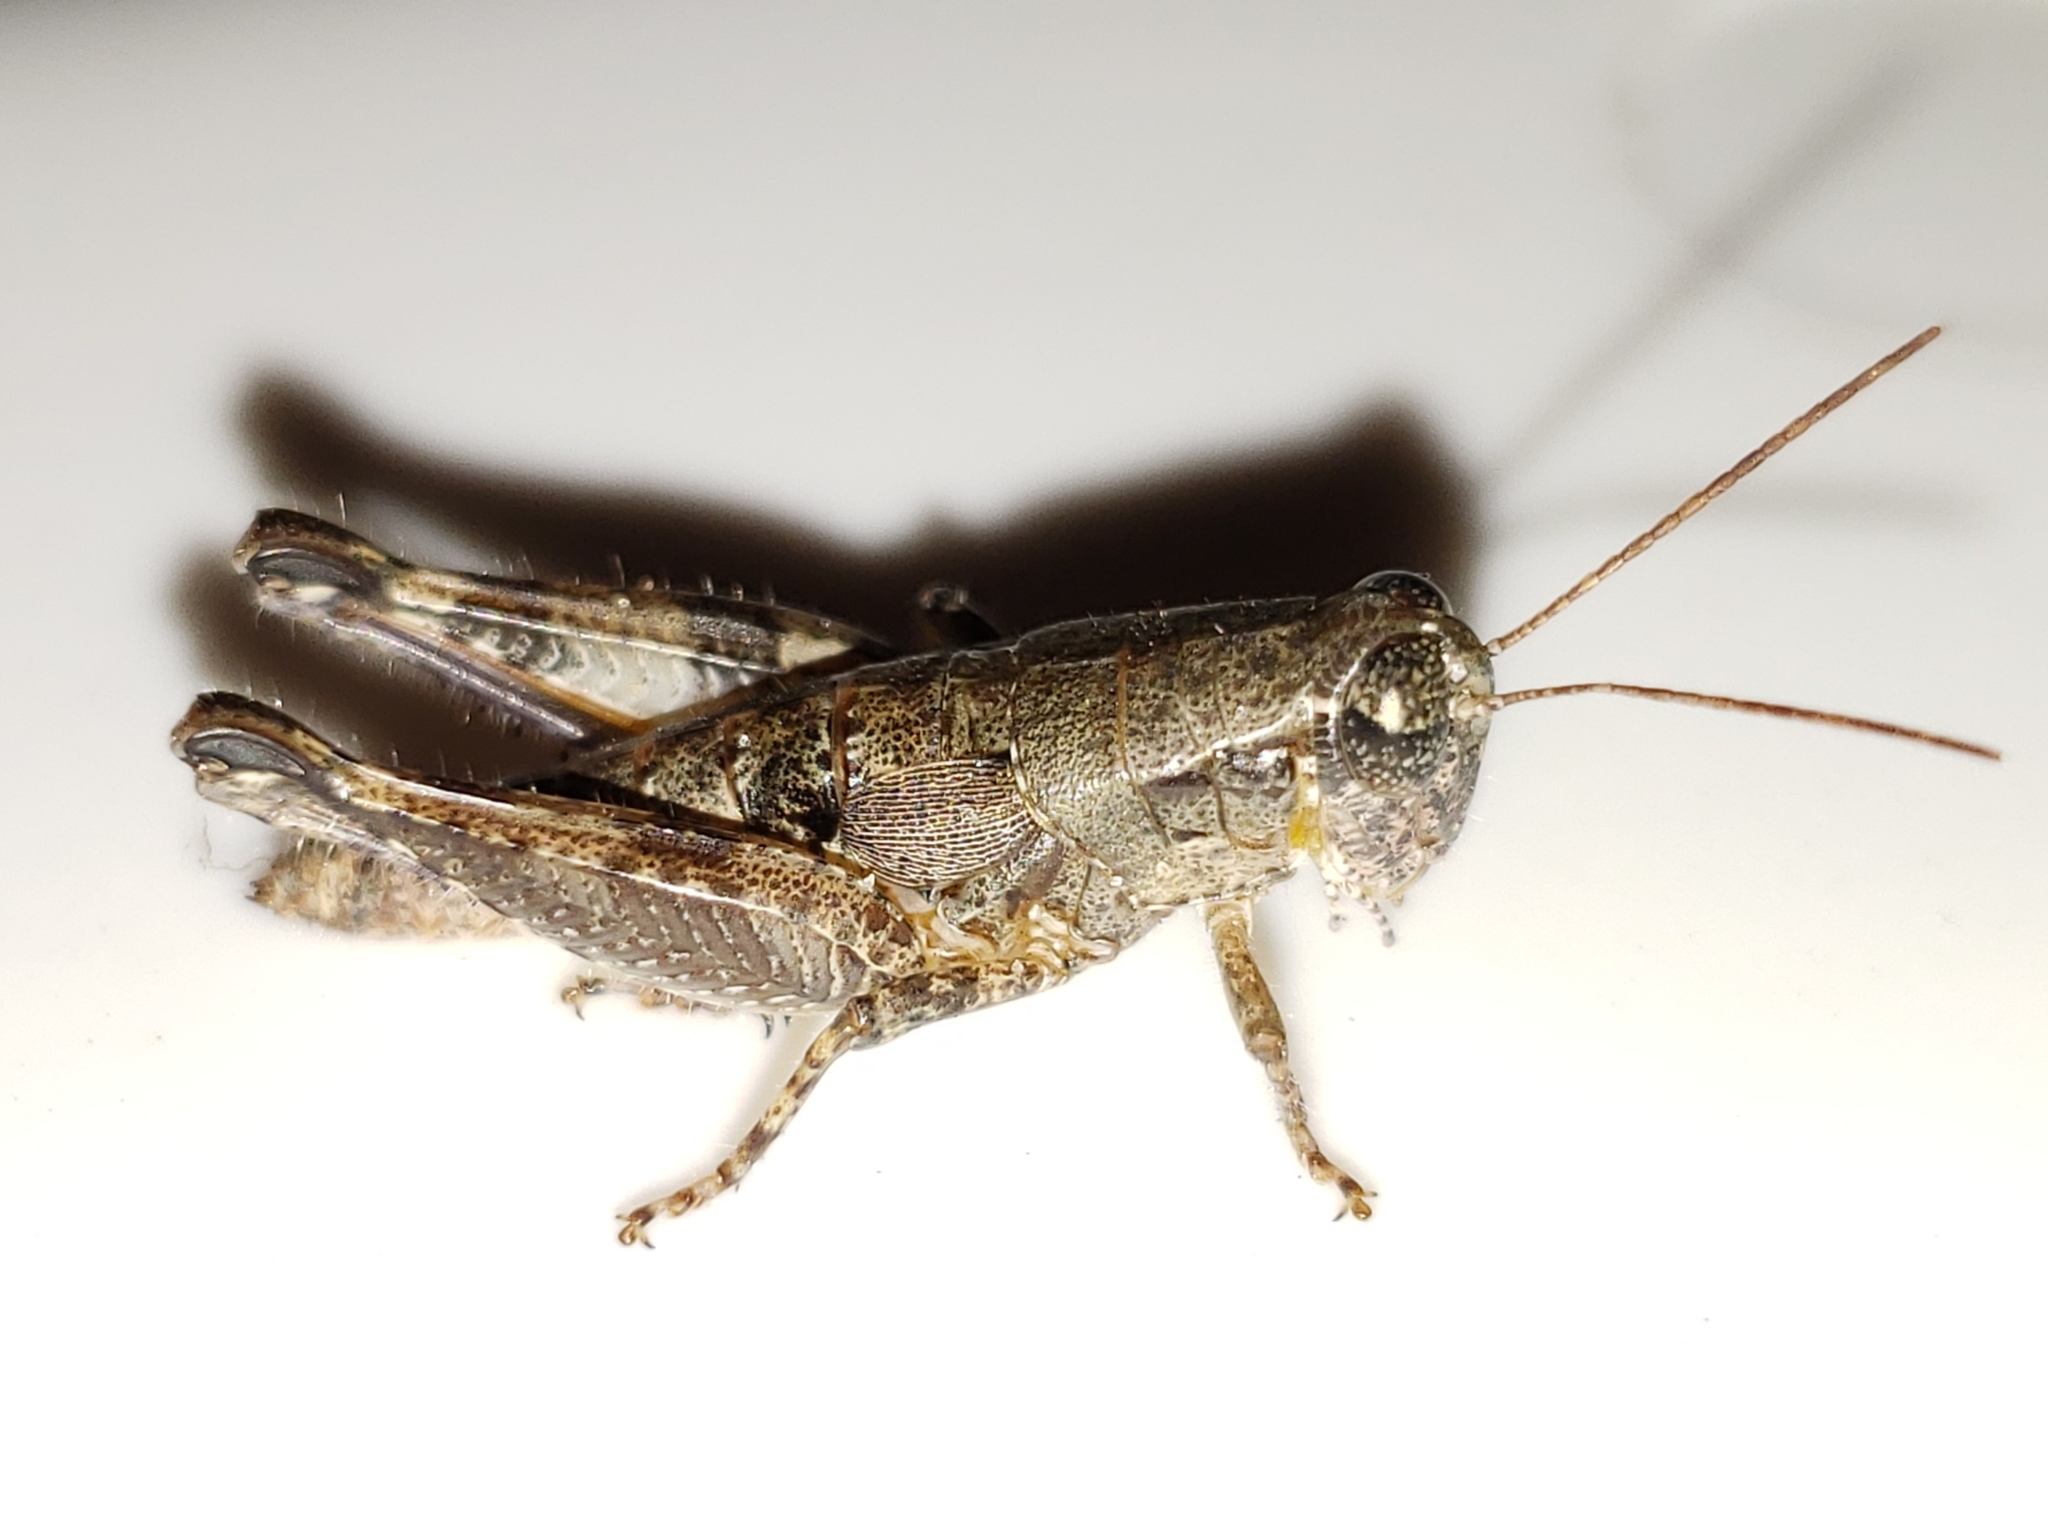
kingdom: Animalia
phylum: Arthropoda
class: Insecta
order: Orthoptera
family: Acrididae
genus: Melanoplus
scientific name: Melanoplus puer
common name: Least short-winged locust
